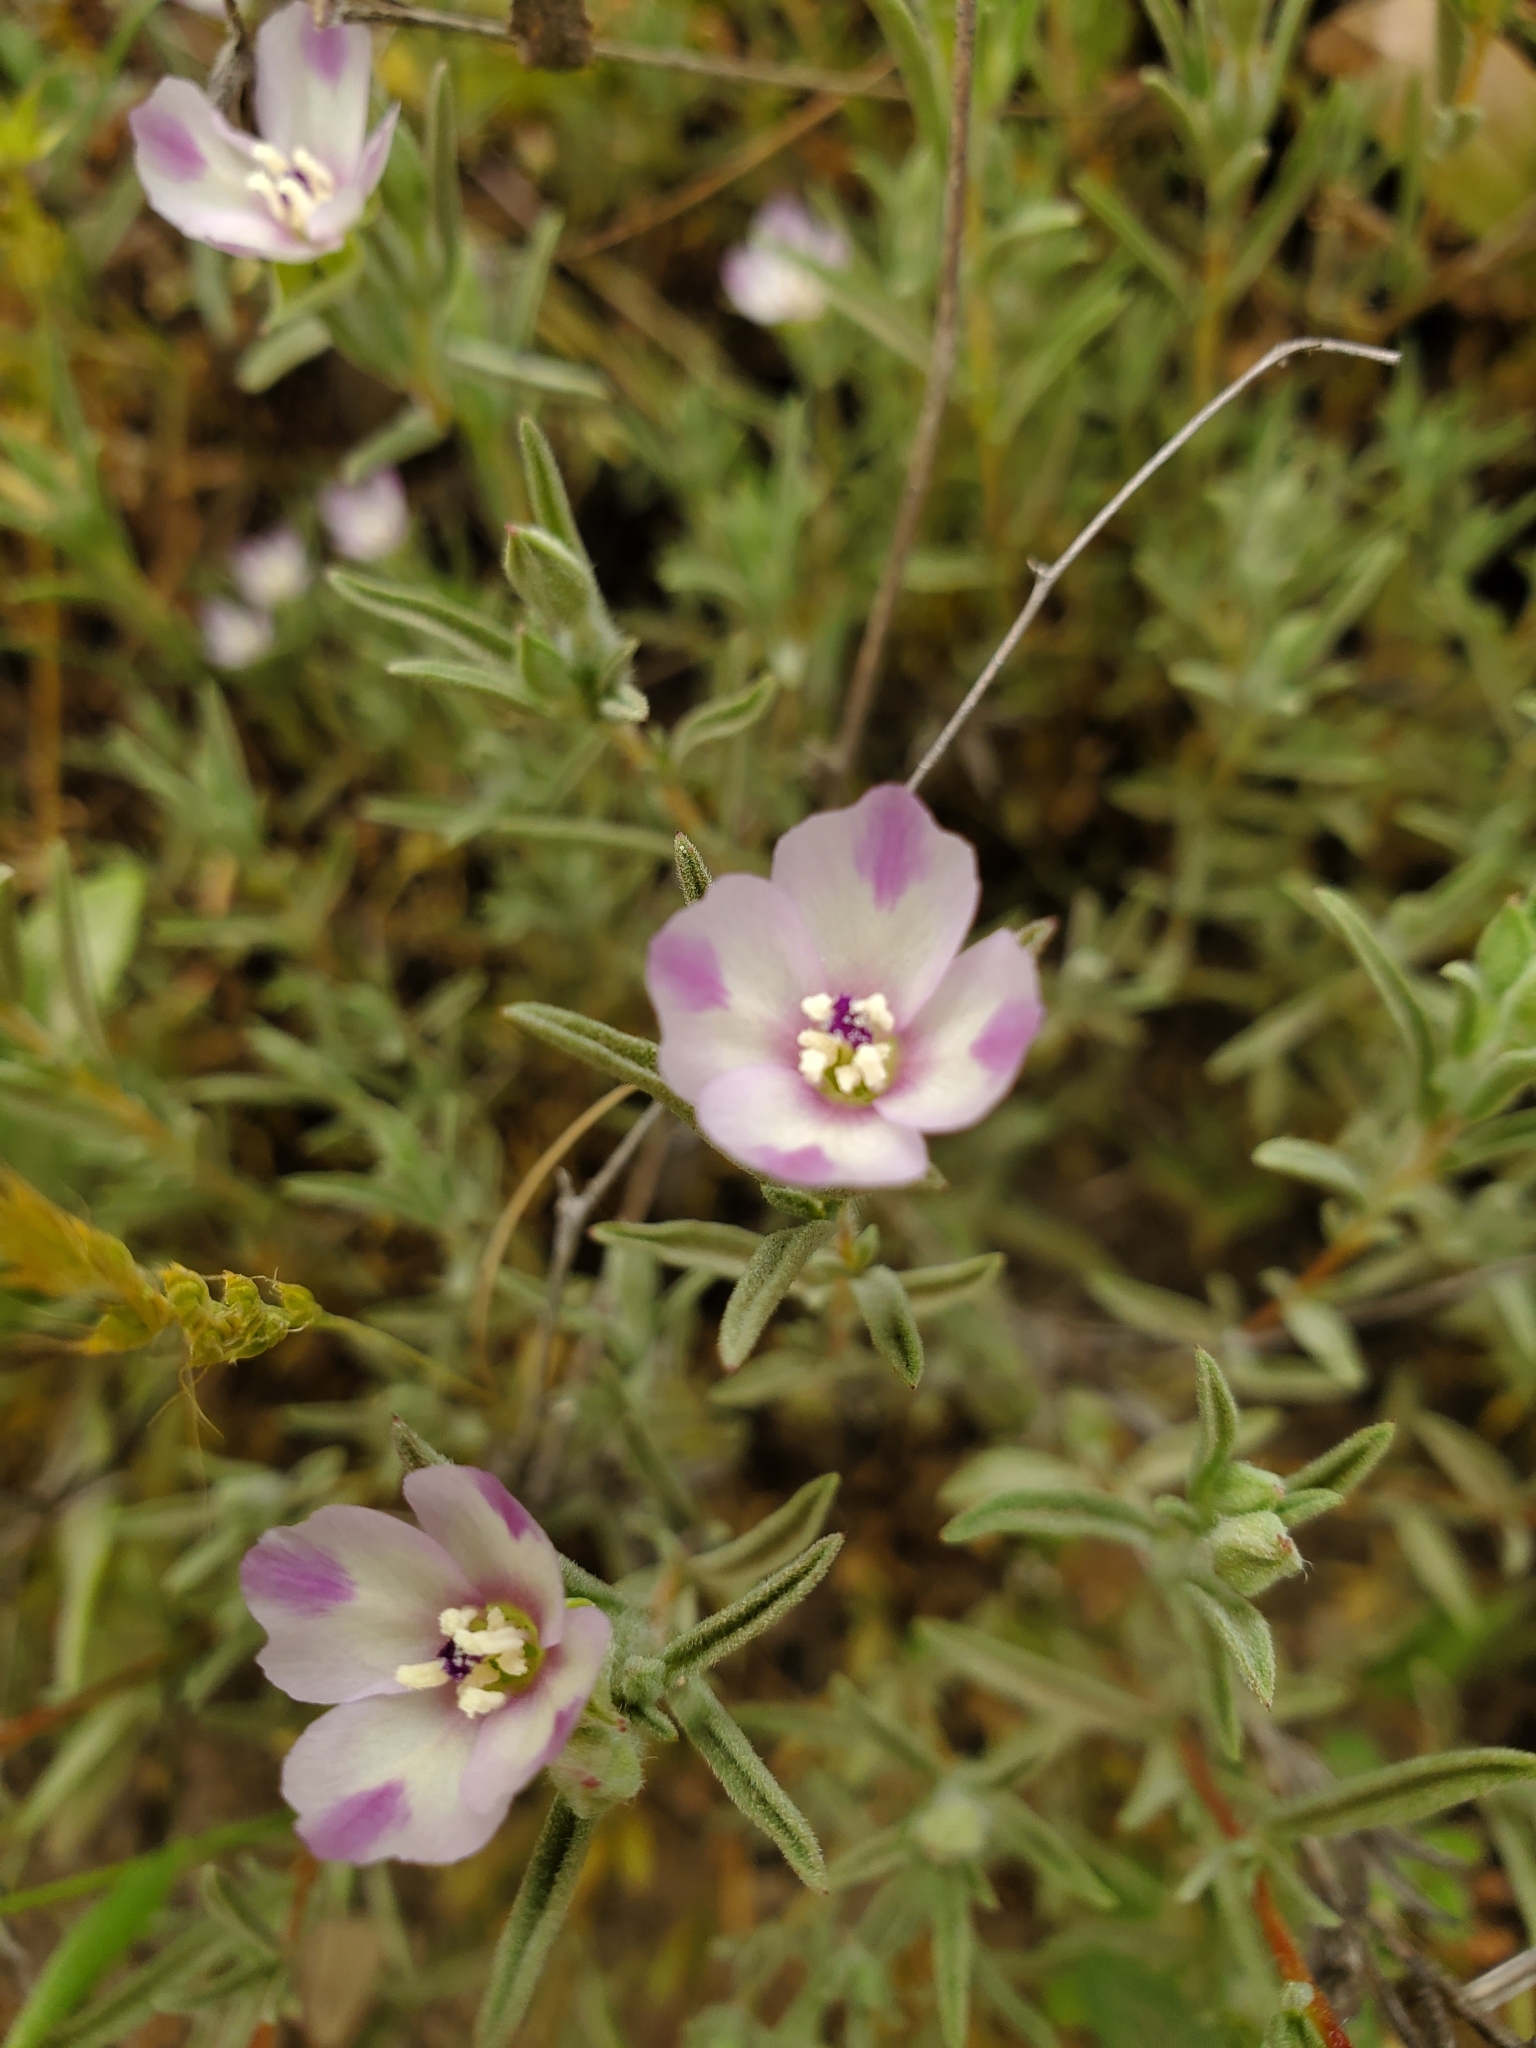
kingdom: Plantae
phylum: Tracheophyta
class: Magnoliopsida
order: Myrtales
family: Onagraceae
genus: Clarkia
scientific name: Clarkia purpurea
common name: Purple clarkia
